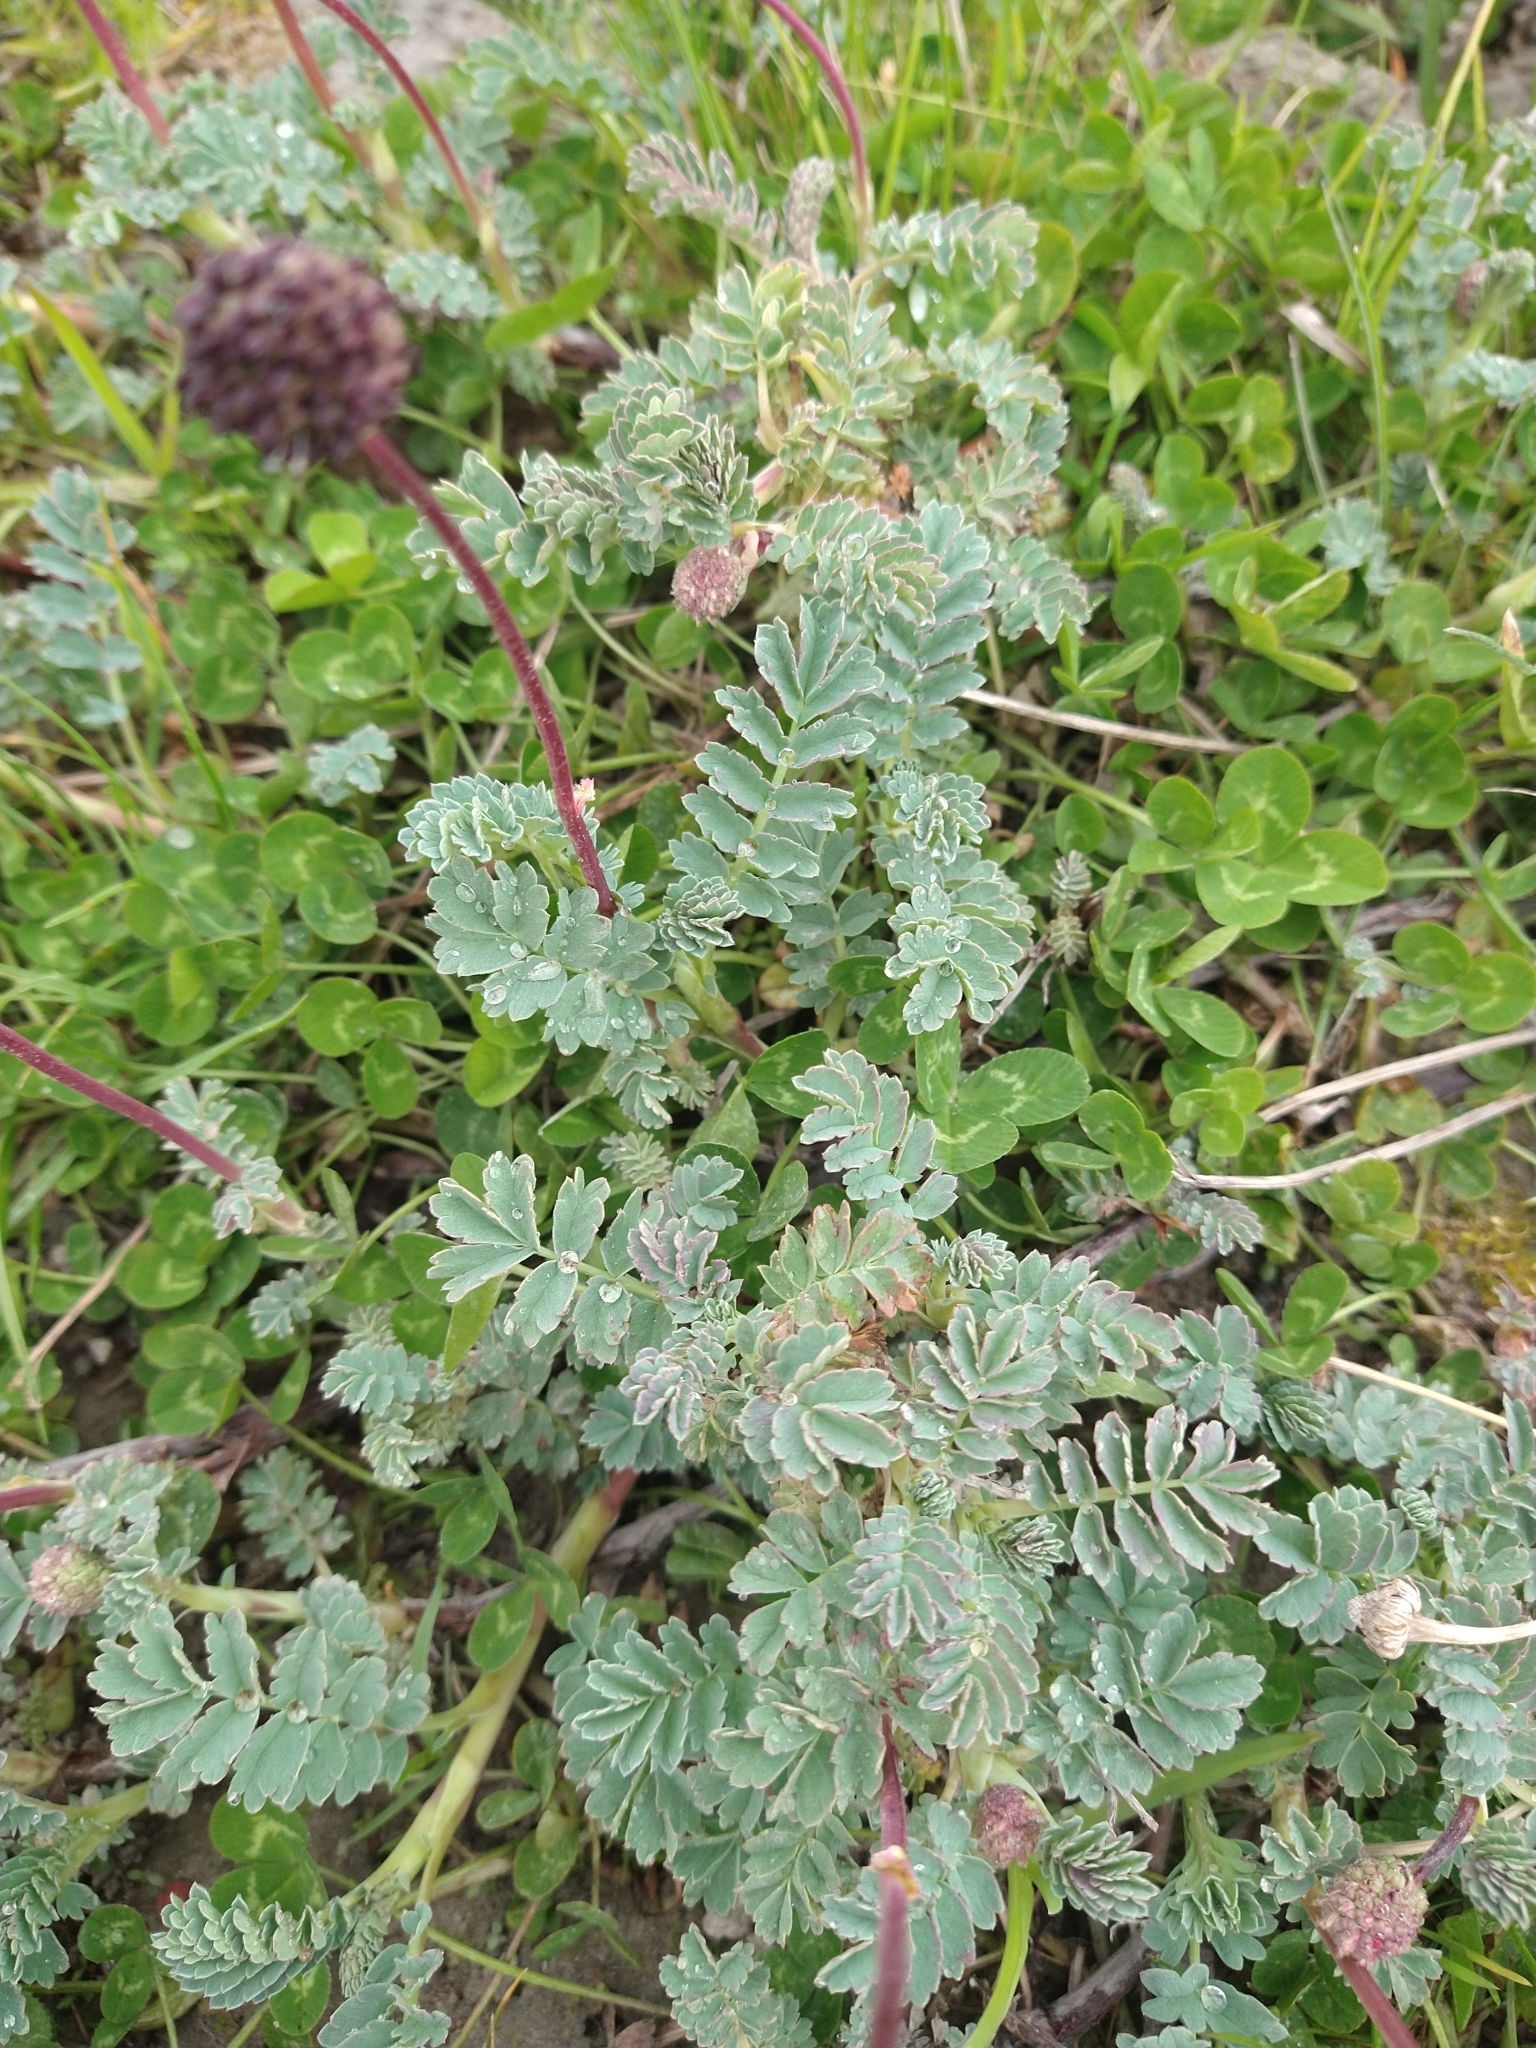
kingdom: Plantae
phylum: Tracheophyta
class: Magnoliopsida
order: Rosales
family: Rosaceae
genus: Acaena
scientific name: Acaena magellanica
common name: New zealand burr
